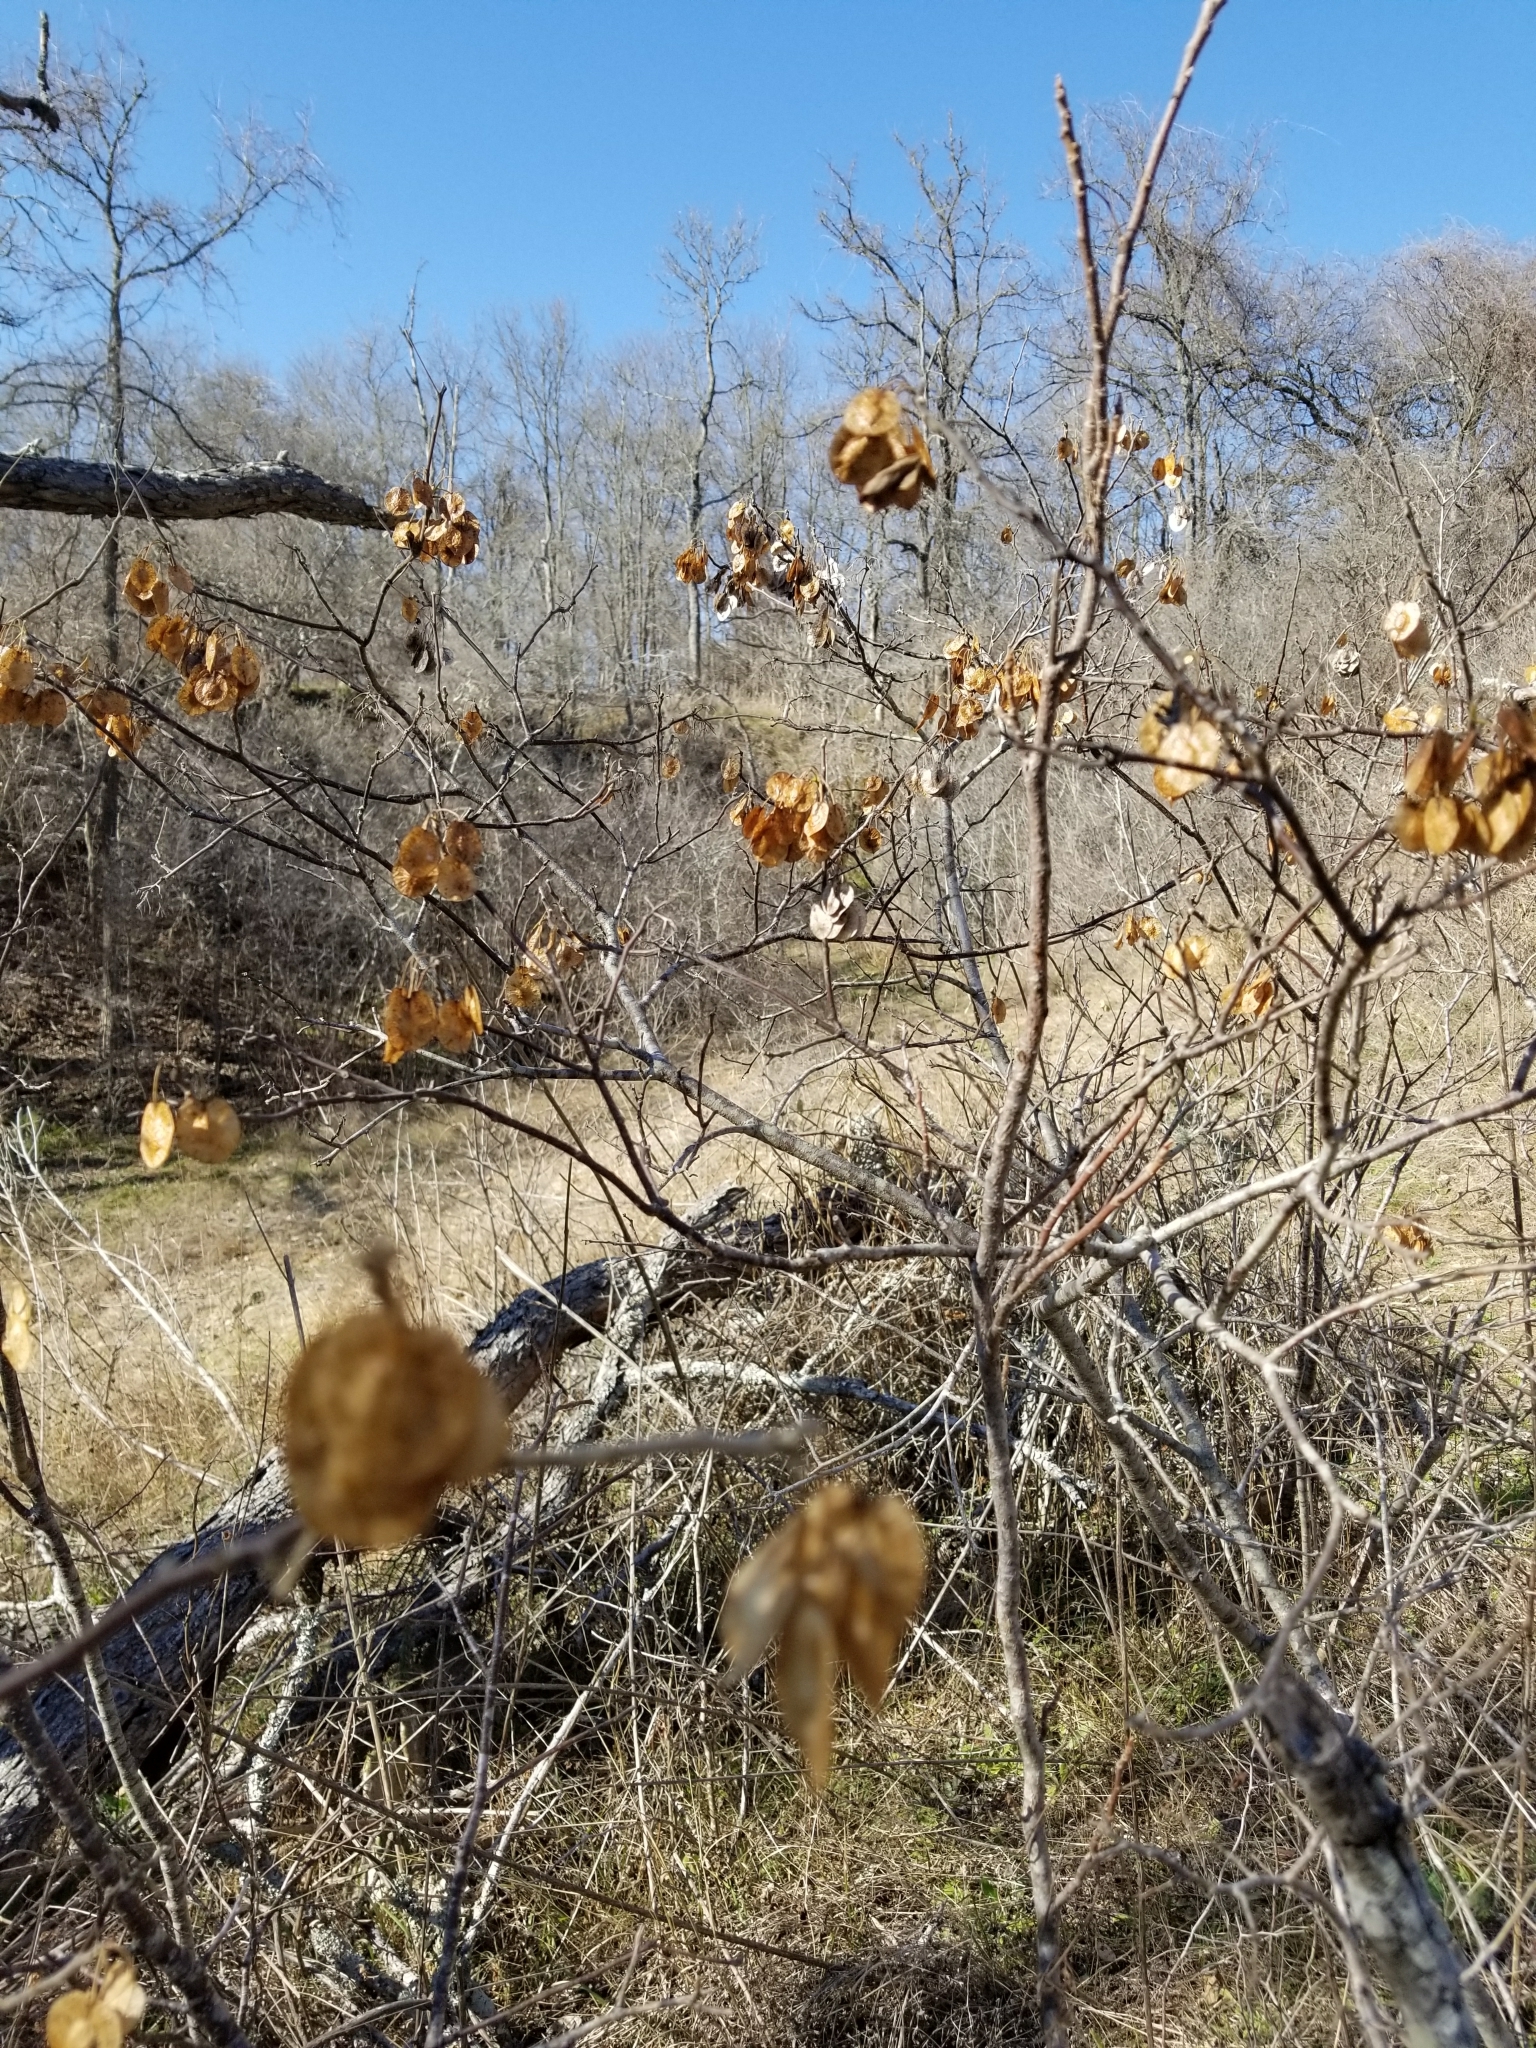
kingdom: Plantae
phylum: Tracheophyta
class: Magnoliopsida
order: Sapindales
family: Rutaceae
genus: Ptelea
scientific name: Ptelea trifoliata
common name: Common hop-tree
